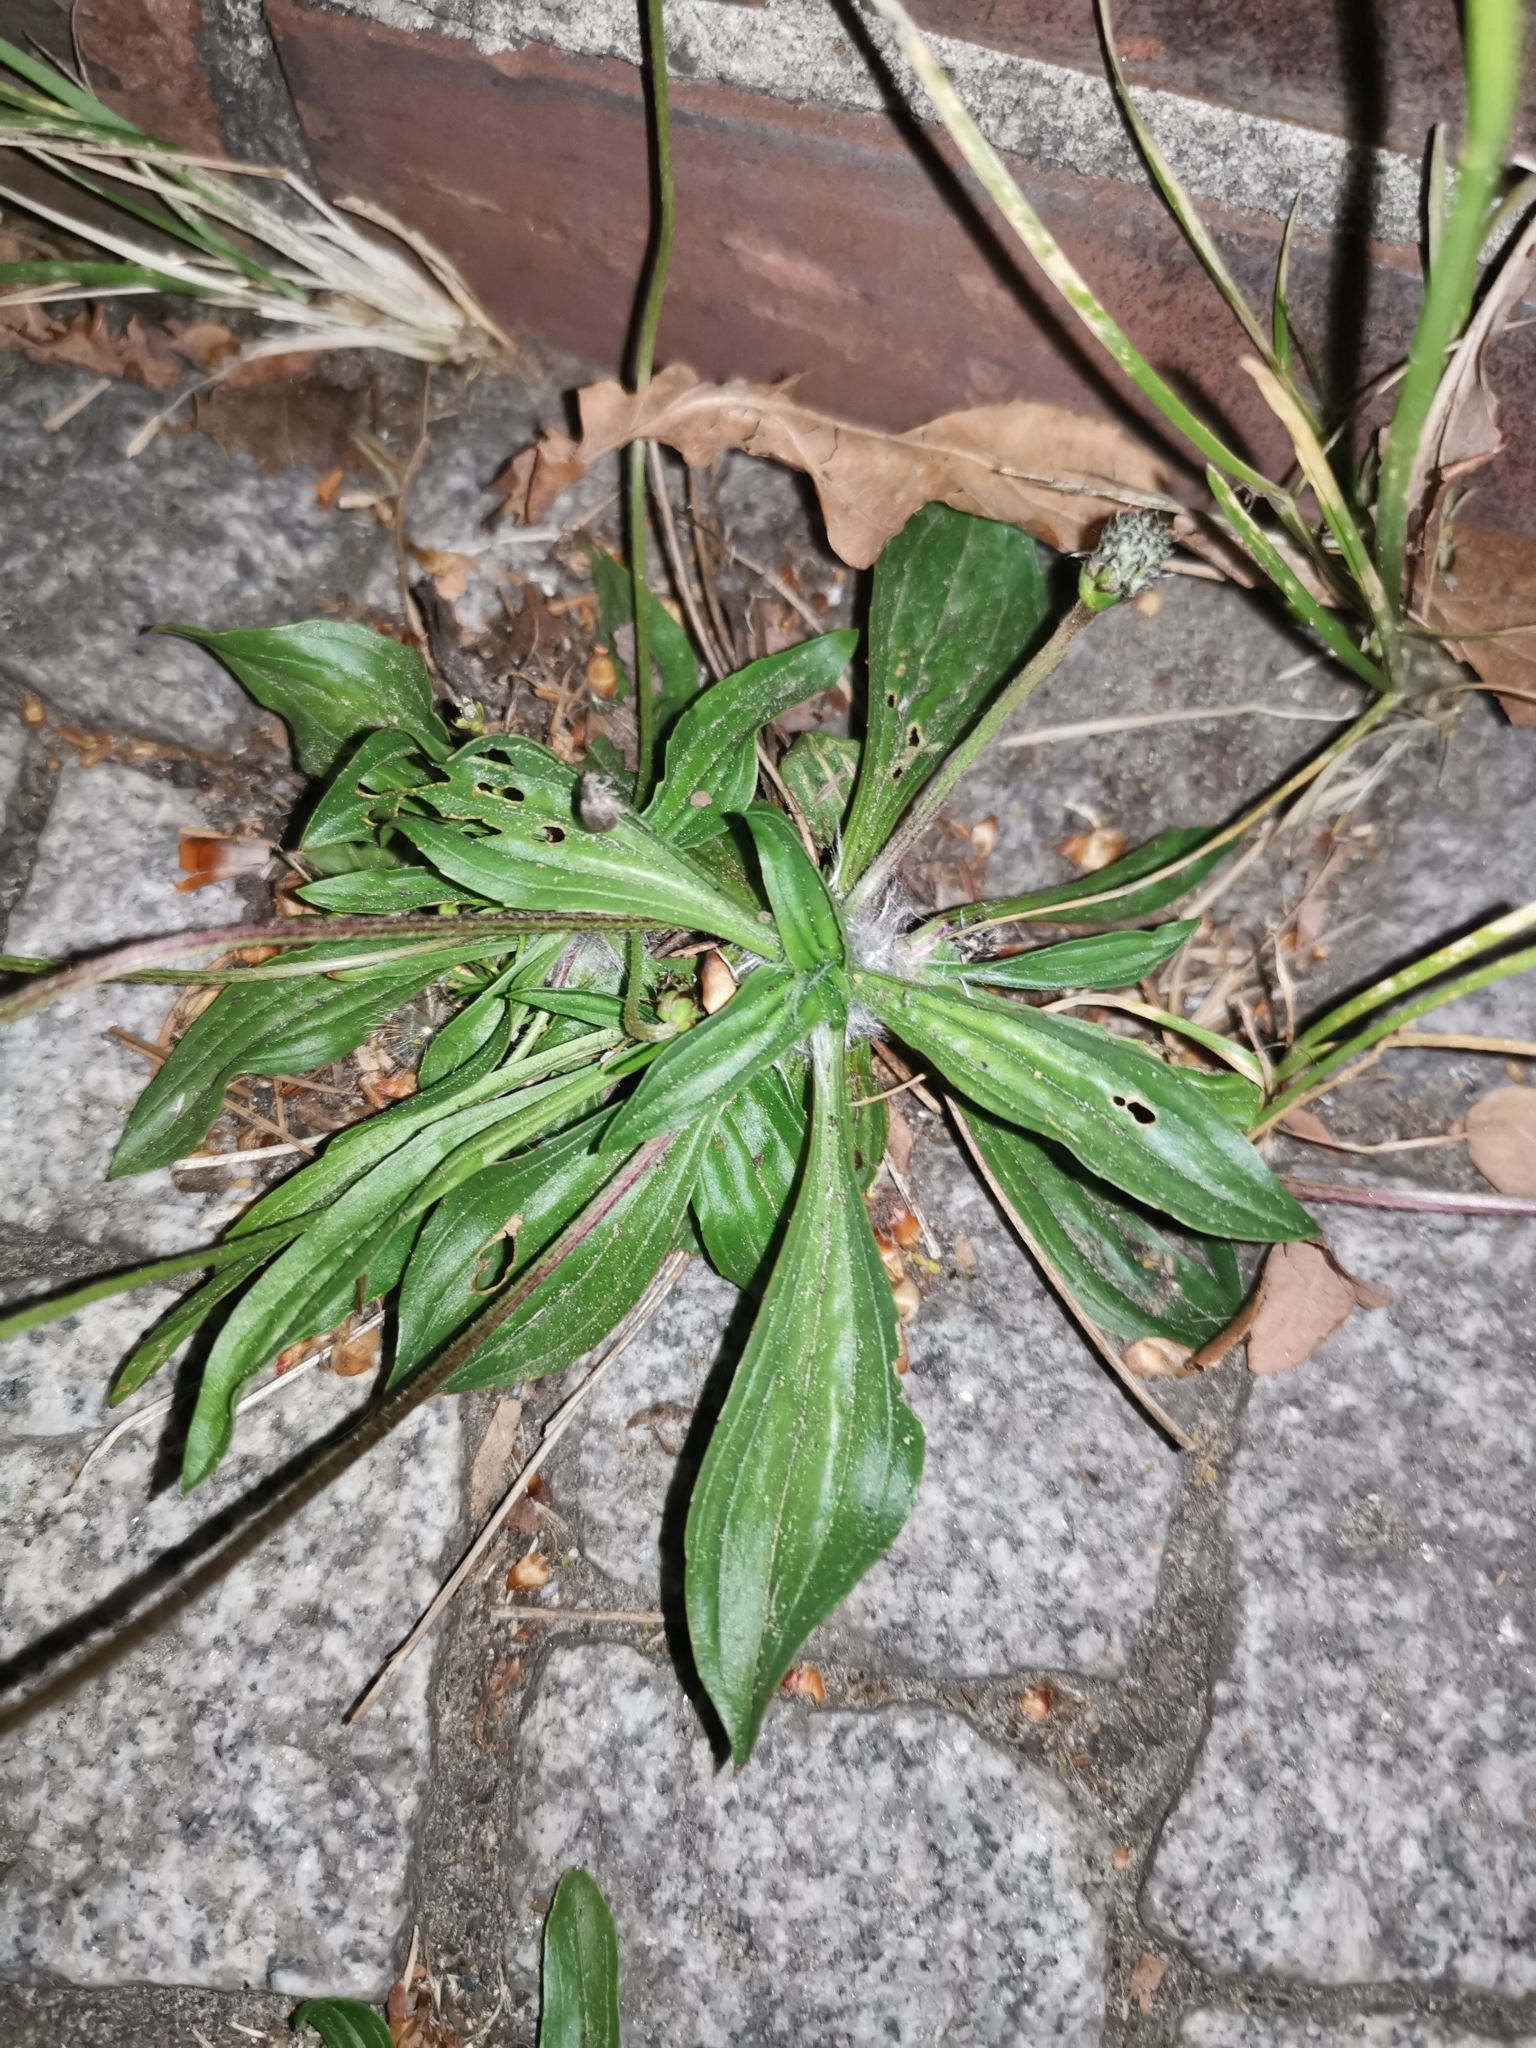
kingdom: Plantae
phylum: Tracheophyta
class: Magnoliopsida
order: Lamiales
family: Plantaginaceae
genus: Plantago
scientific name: Plantago lanceolata
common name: Ribwort plantain
